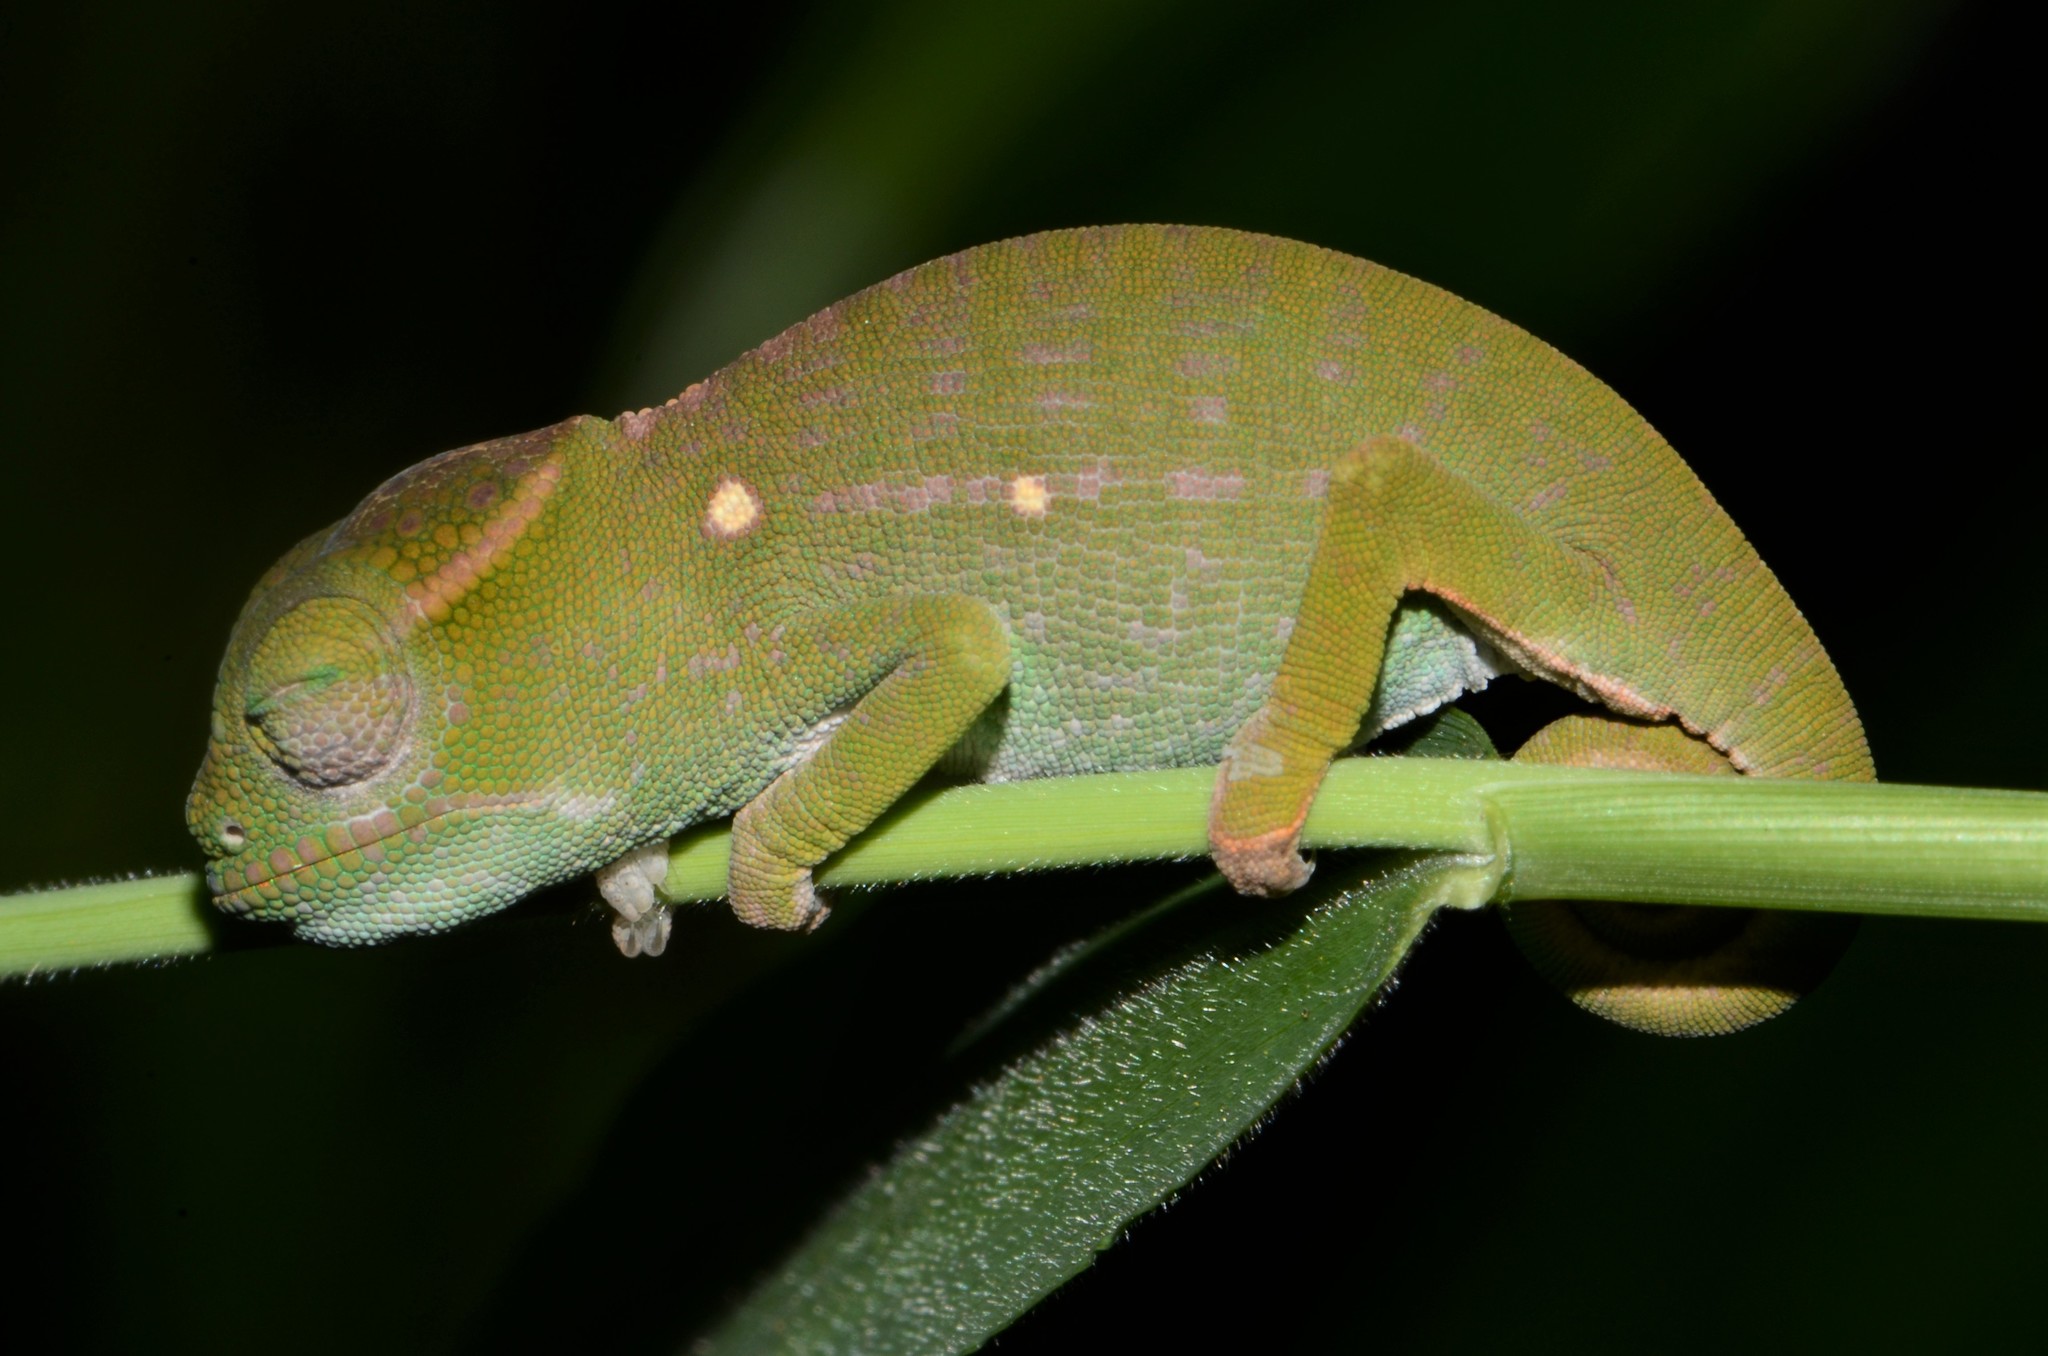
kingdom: Animalia
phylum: Chordata
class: Squamata
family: Chamaeleonidae
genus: Furcifer
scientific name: Furcifer petteri
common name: Petter's chameleon
